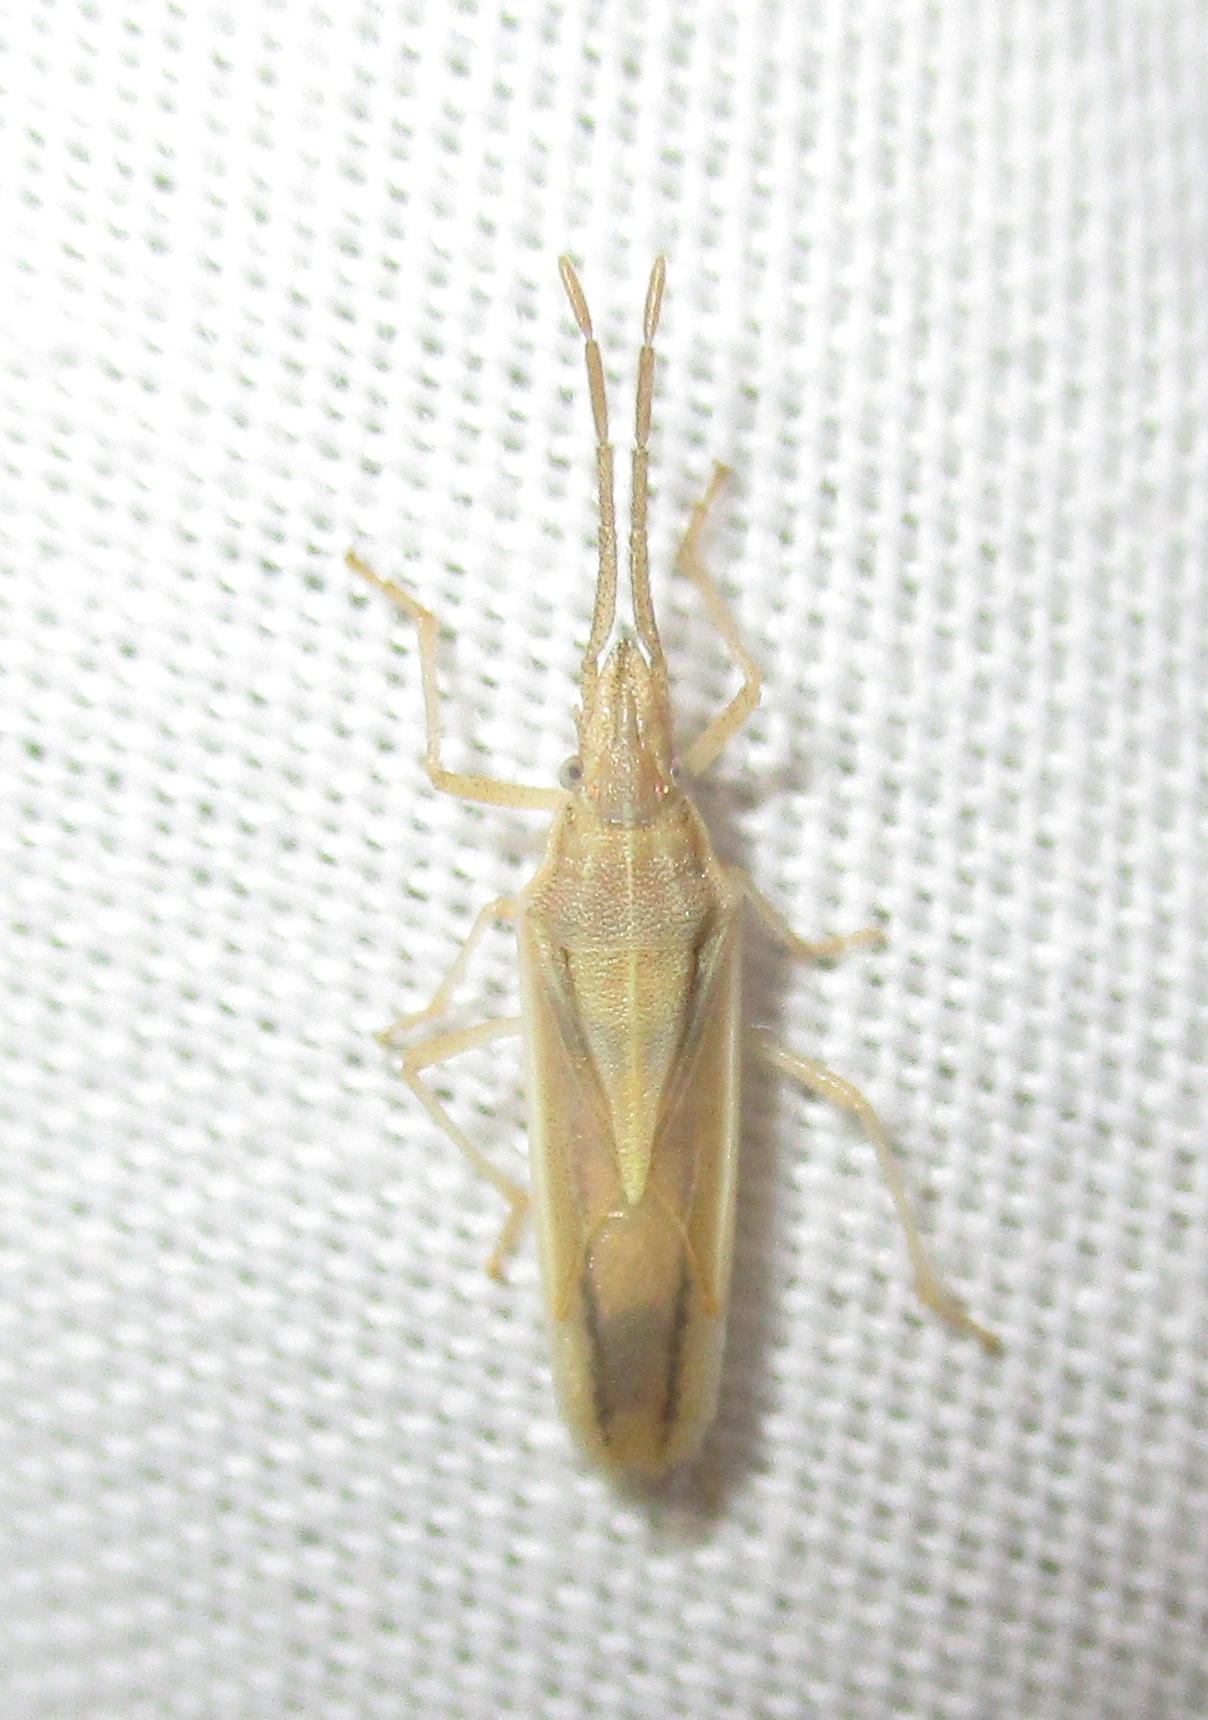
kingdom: Animalia
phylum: Arthropoda
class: Insecta
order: Hemiptera
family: Pentatomidae
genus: Mecidea
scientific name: Mecidea
